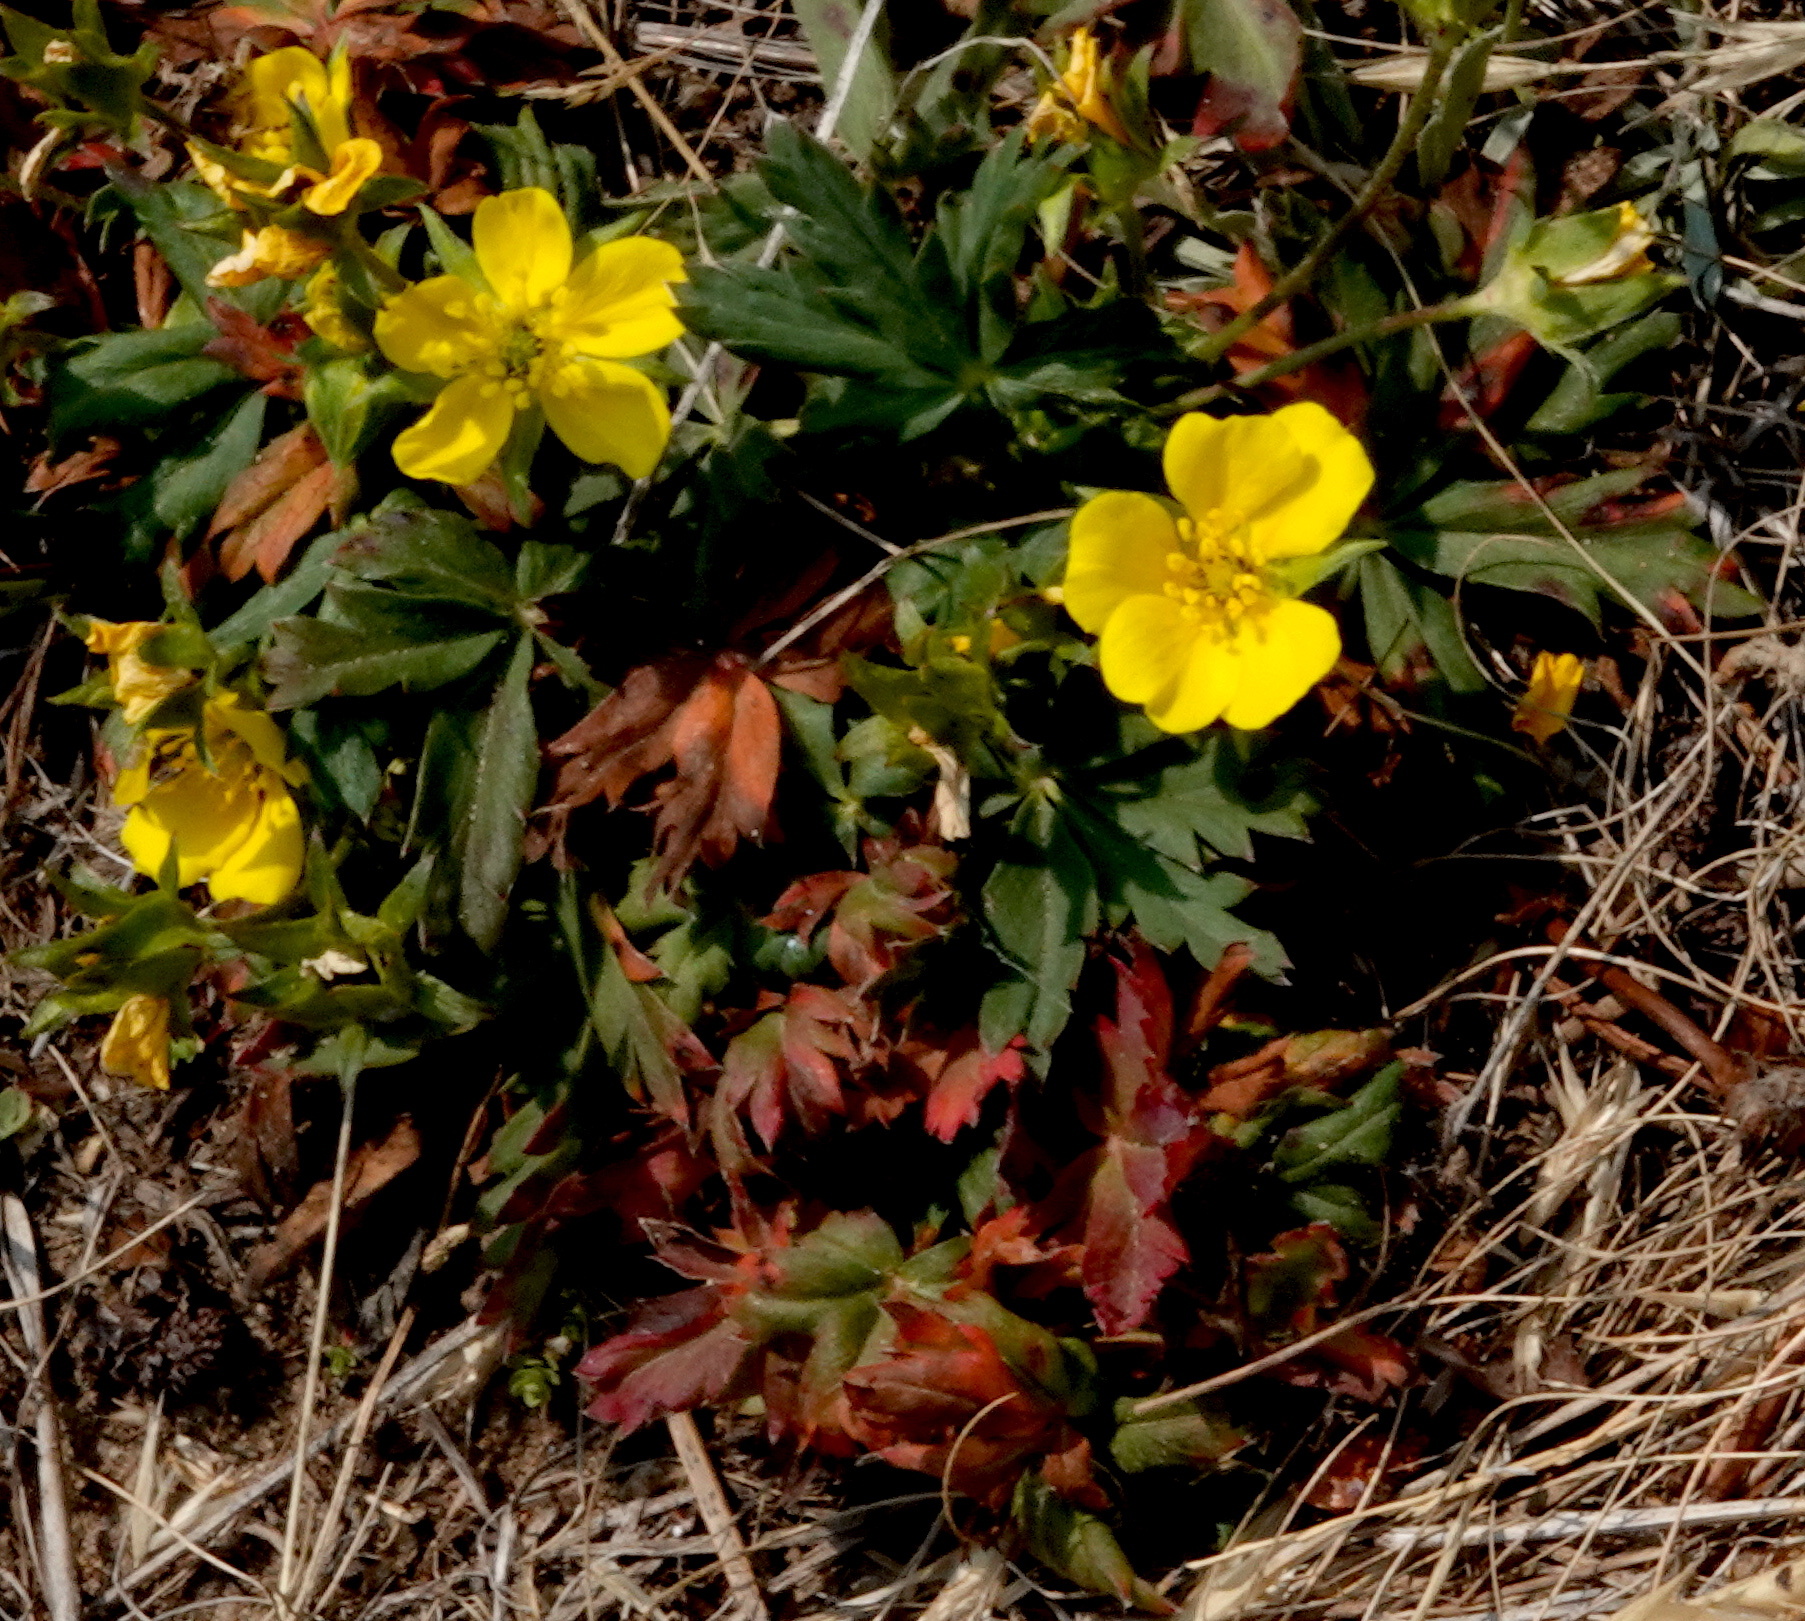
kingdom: Plantae
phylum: Tracheophyta
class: Magnoliopsida
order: Rosales
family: Rosaceae
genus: Potentilla
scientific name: Potentilla gracilis
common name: Graceful cinquefoil
